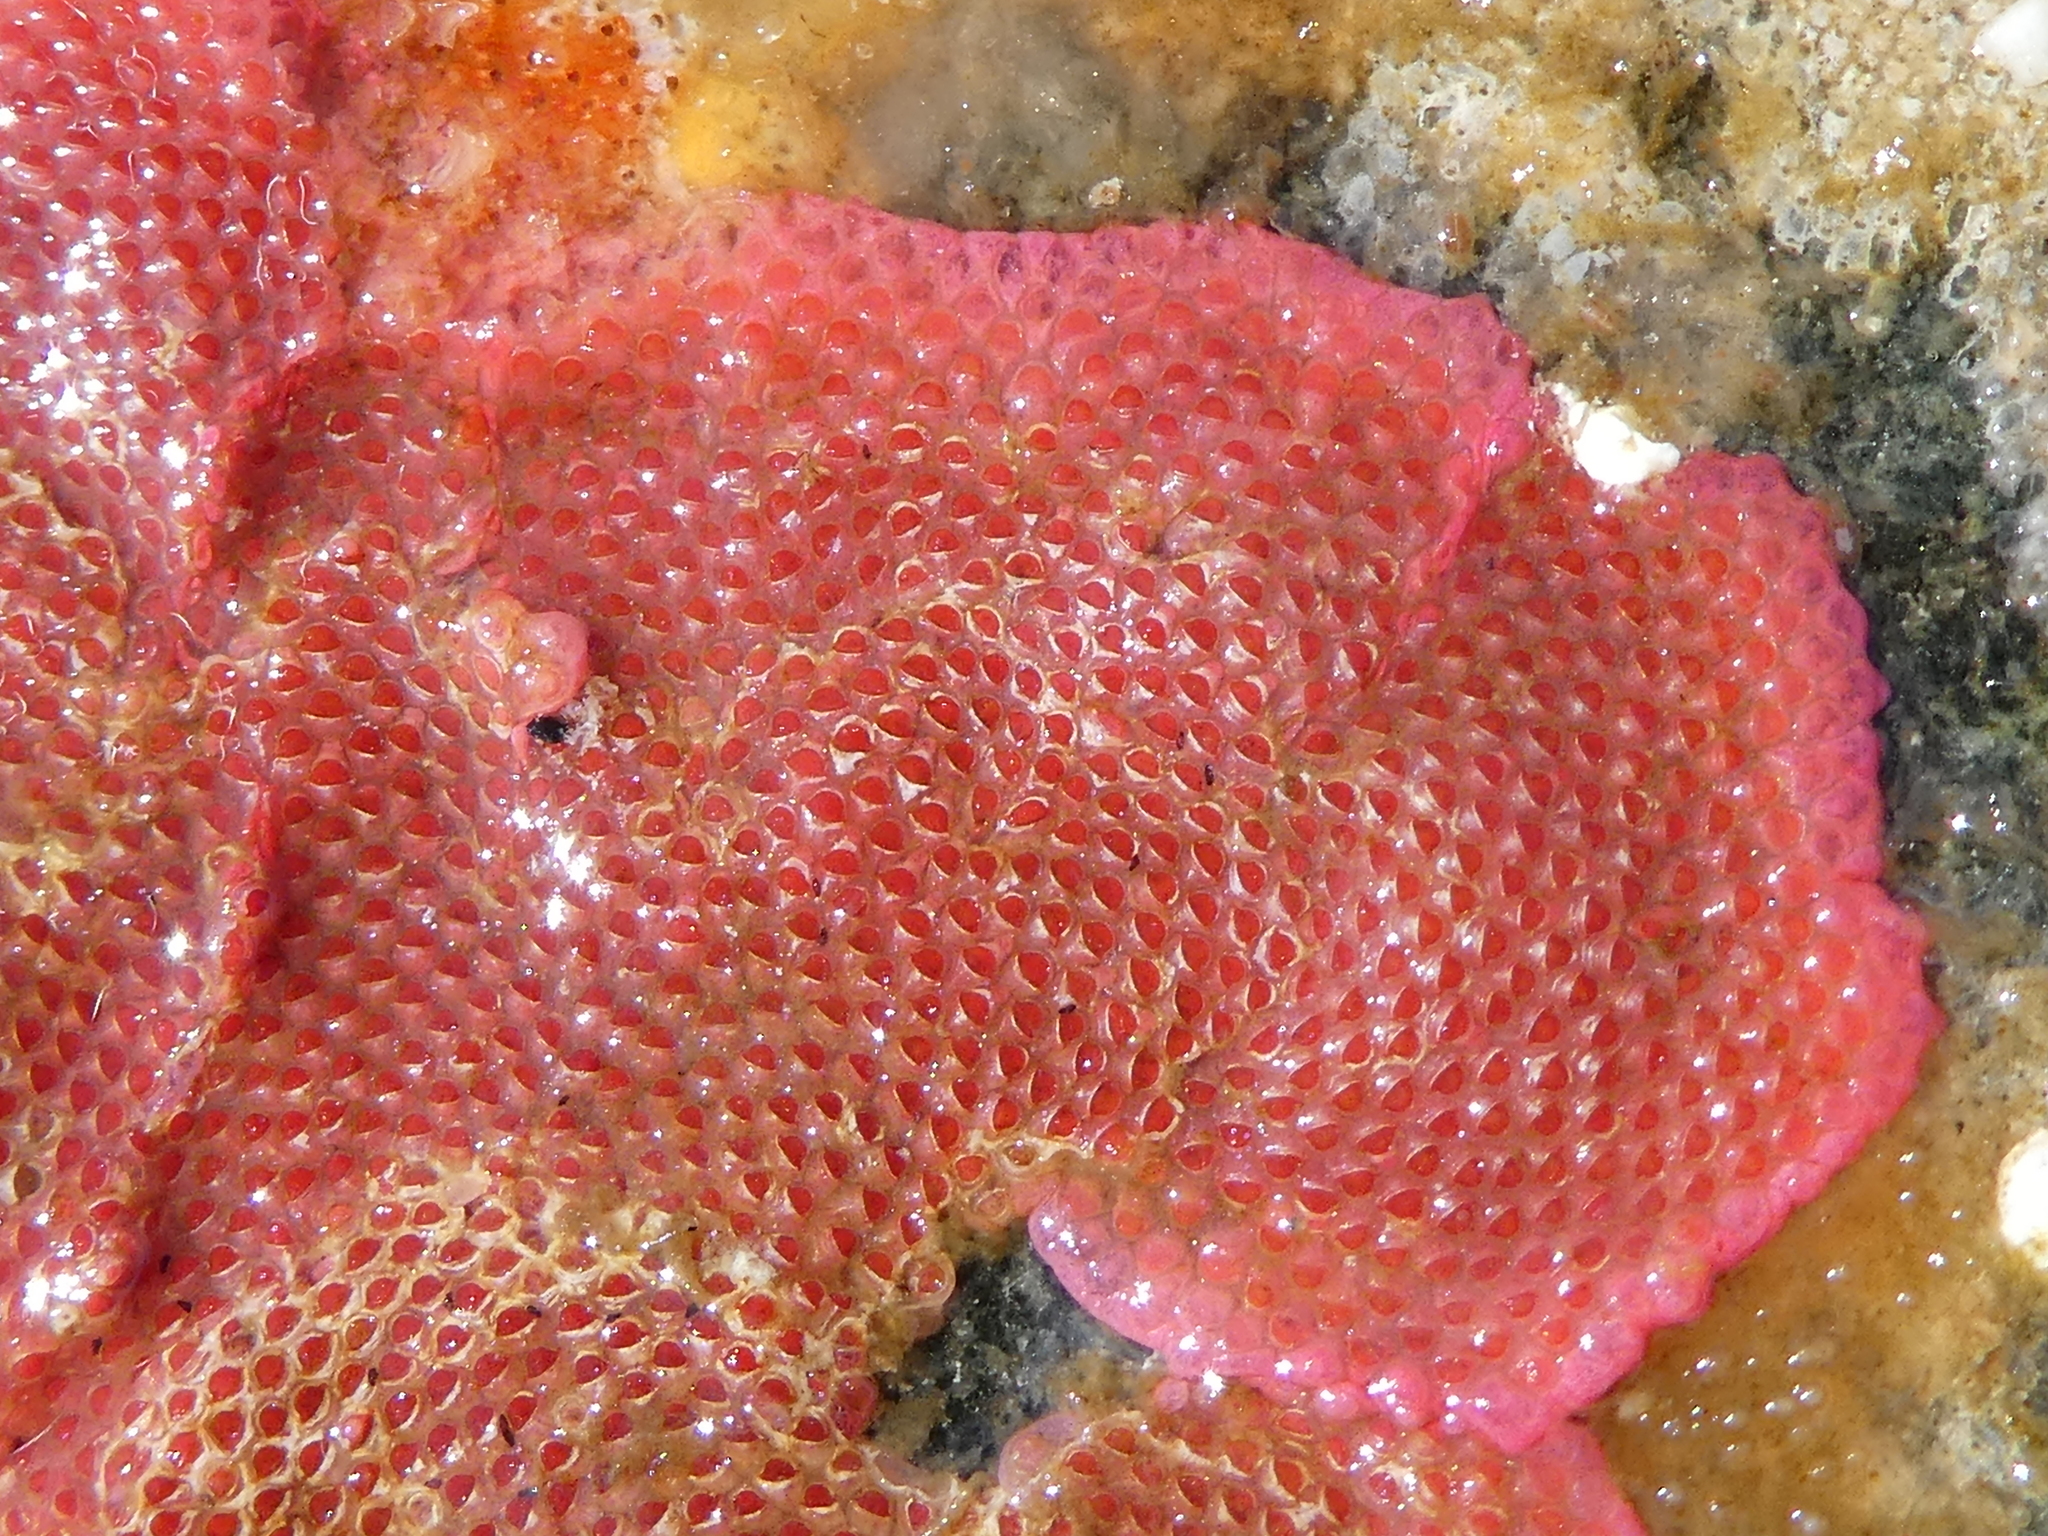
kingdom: Animalia
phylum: Bryozoa
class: Gymnolaemata
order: Cheilostomatida
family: Eurystomellidae
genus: Integripelta
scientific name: Integripelta bilabiata
